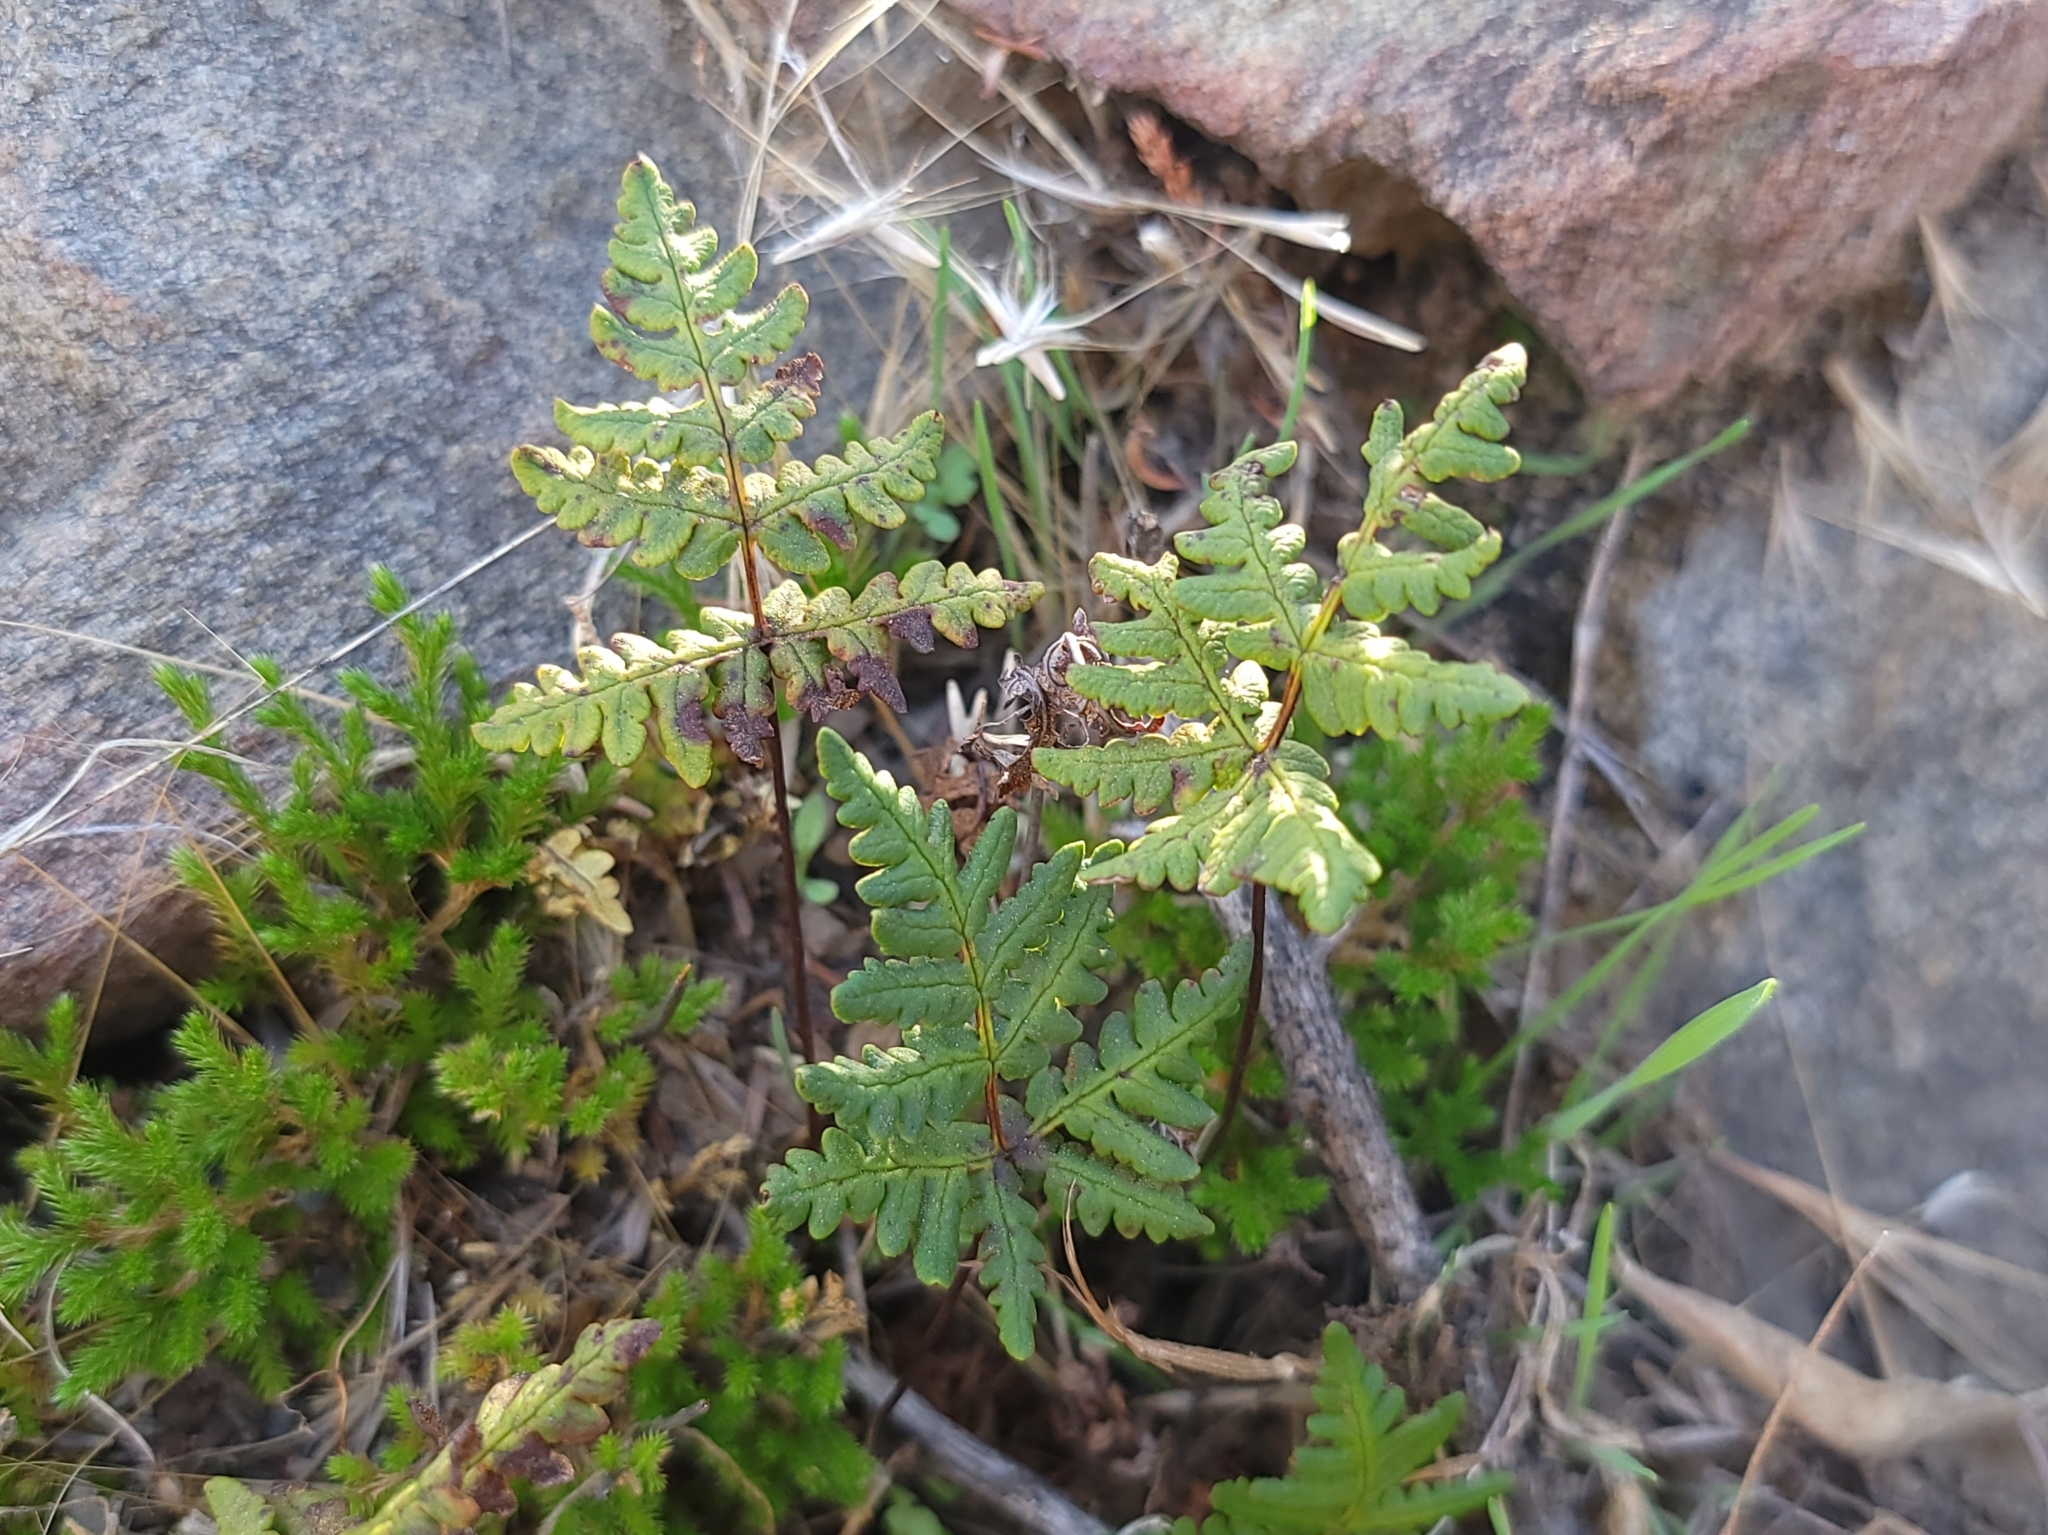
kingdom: Plantae
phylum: Tracheophyta
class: Polypodiopsida
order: Polypodiales
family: Pteridaceae
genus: Pentagramma
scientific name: Pentagramma triangularis
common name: Gold fern
